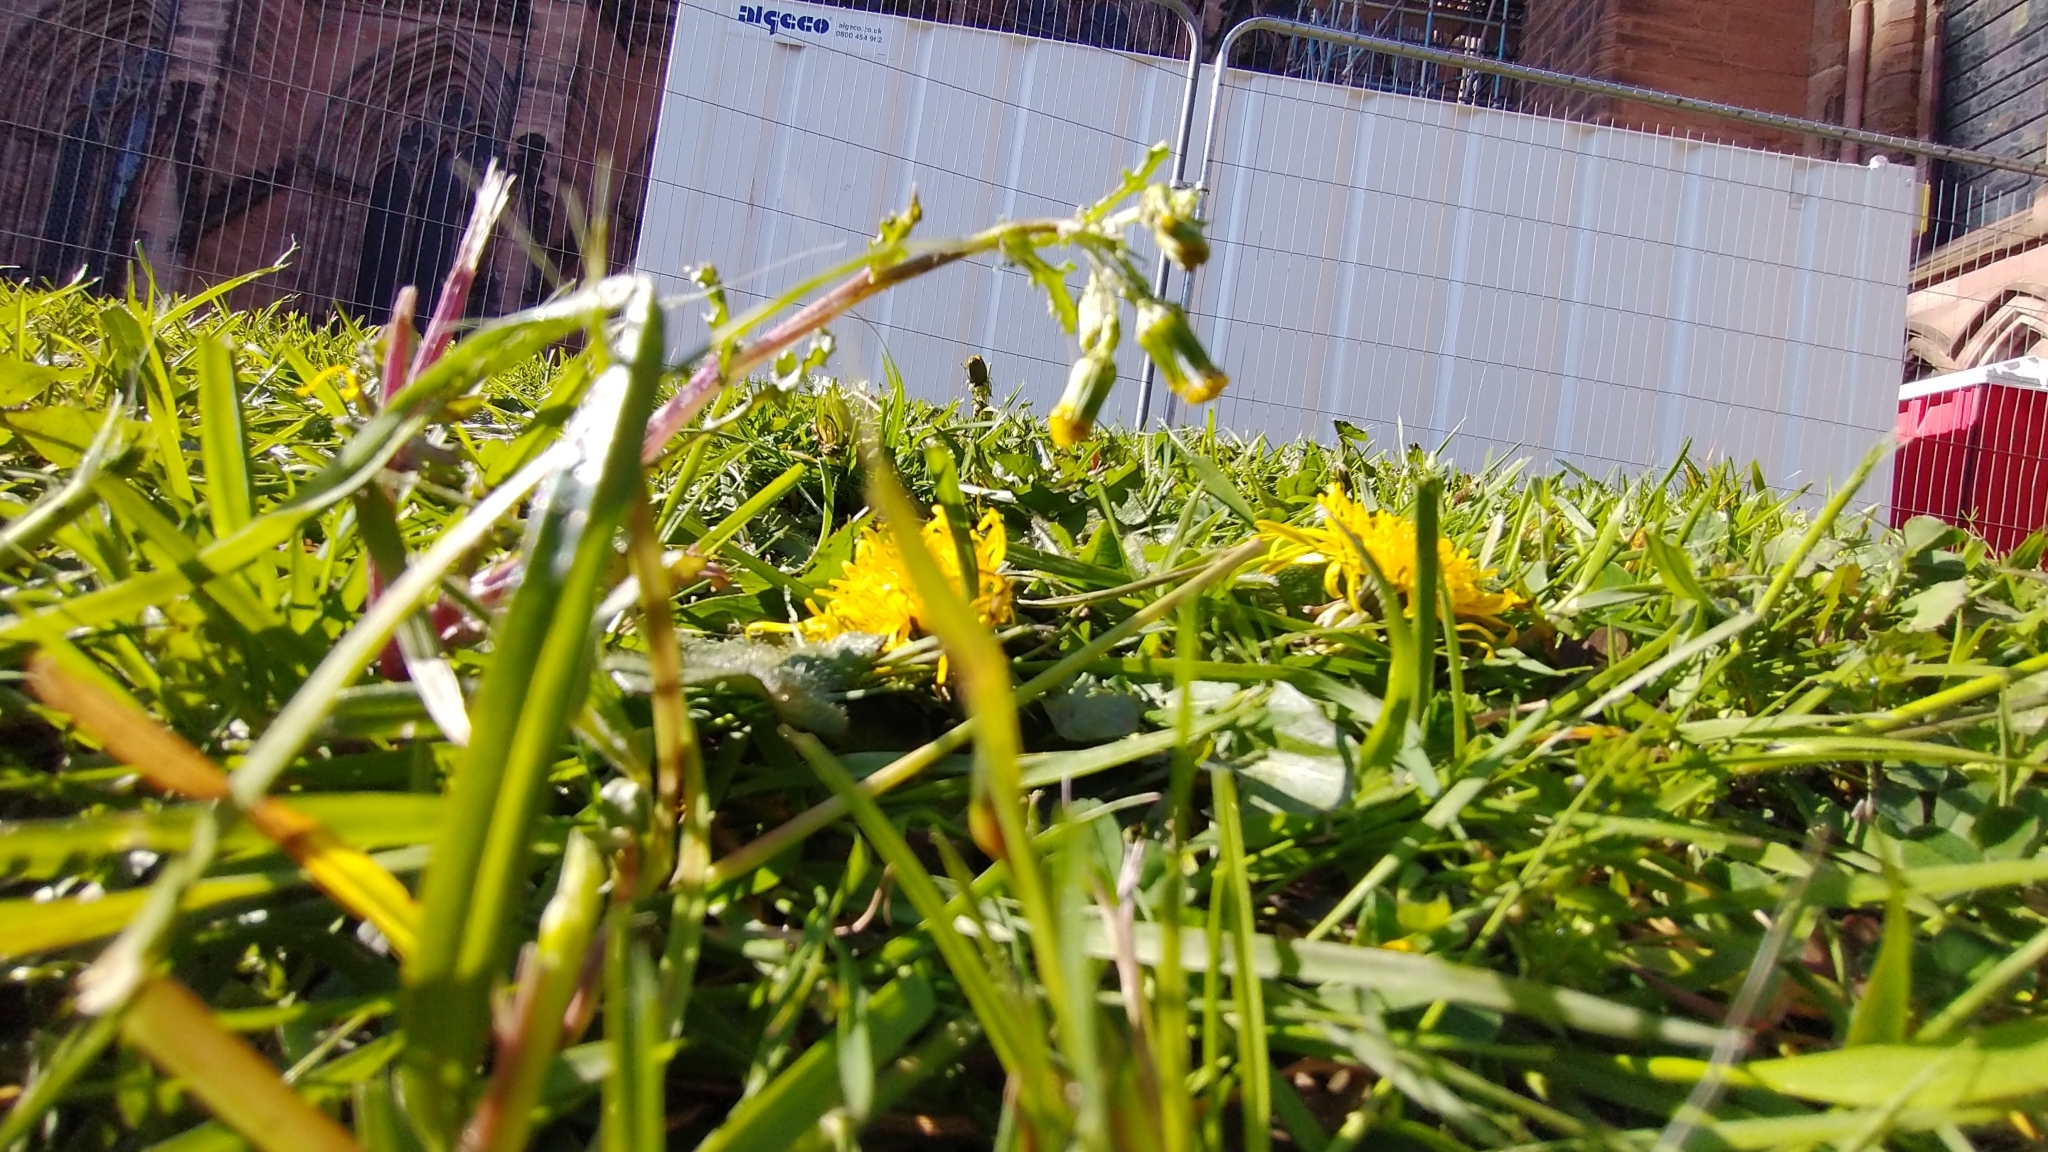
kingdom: Plantae
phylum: Tracheophyta
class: Magnoliopsida
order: Asterales
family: Asteraceae
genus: Senecio
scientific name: Senecio vulgaris
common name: Old-man-in-the-spring
